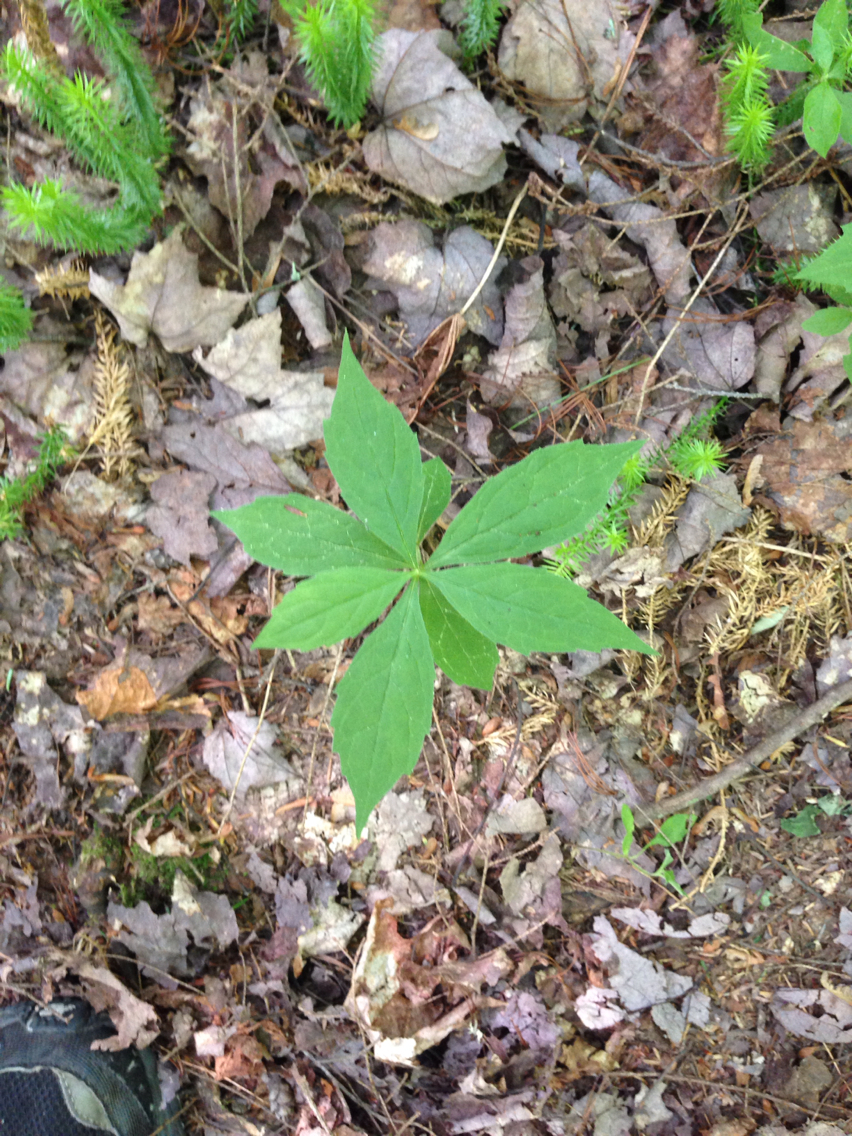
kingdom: Plantae
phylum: Tracheophyta
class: Magnoliopsida
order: Asterales
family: Asteraceae
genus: Oclemena
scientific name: Oclemena acuminata
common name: Mountain aster
